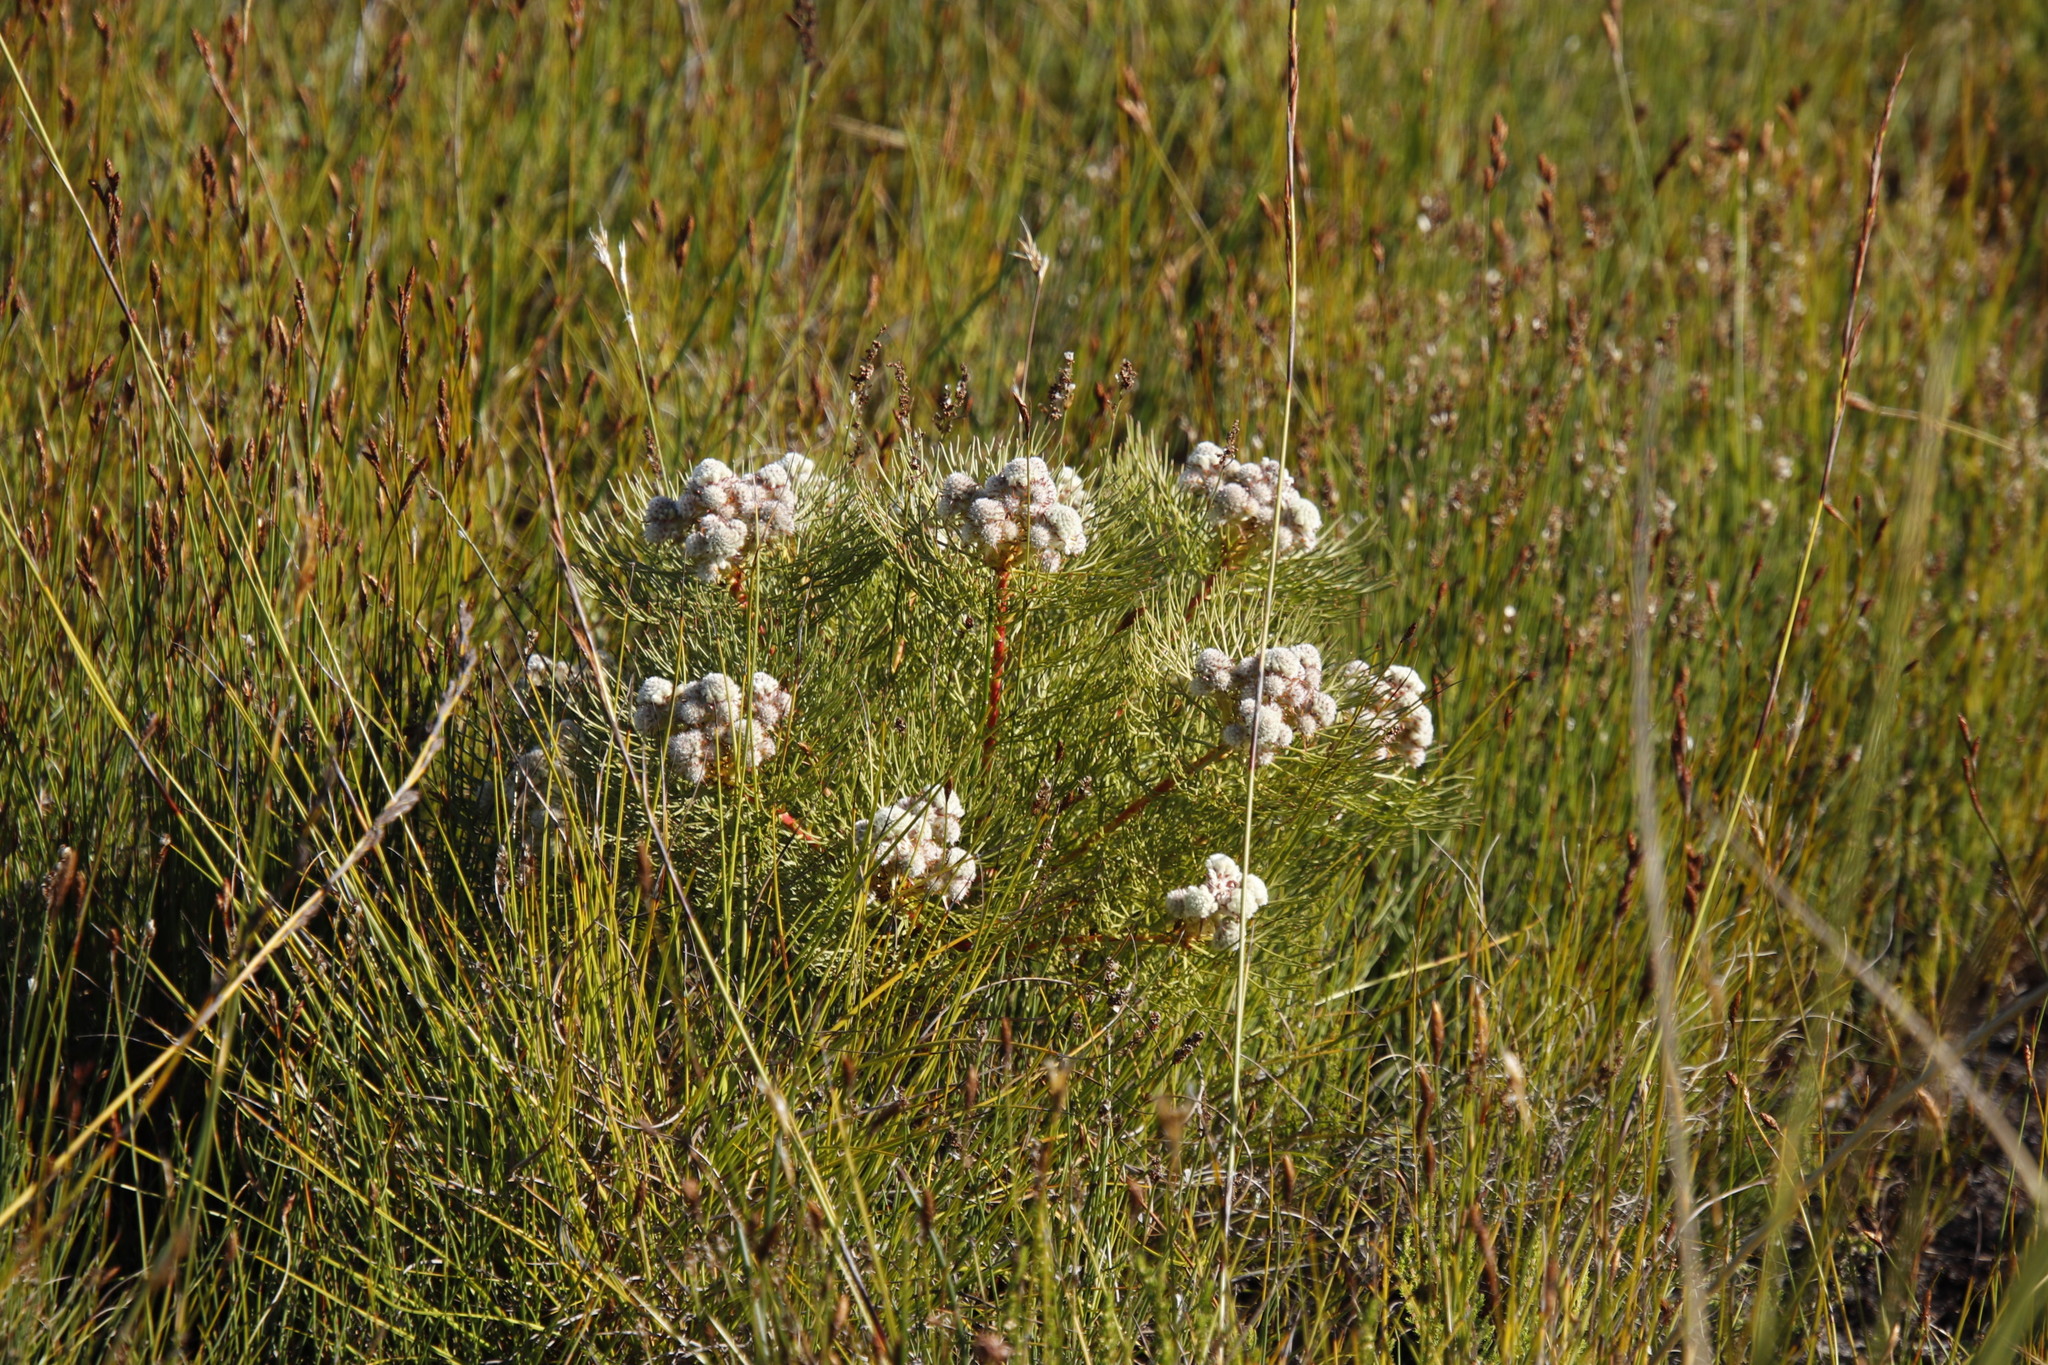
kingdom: Plantae
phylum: Tracheophyta
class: Magnoliopsida
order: Proteales
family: Proteaceae
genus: Serruria
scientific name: Serruria glomerata
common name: Cluster spiderhead
